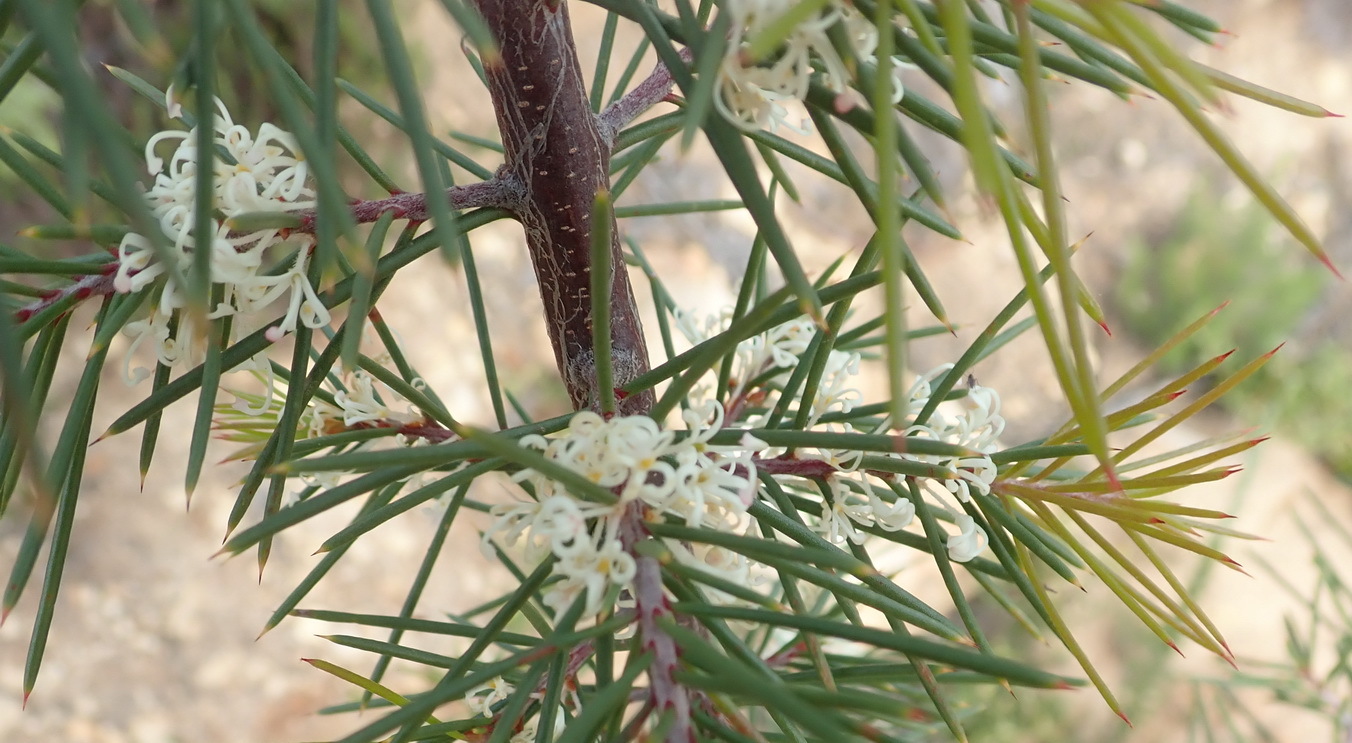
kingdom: Plantae
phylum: Tracheophyta
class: Magnoliopsida
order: Proteales
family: Proteaceae
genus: Hakea
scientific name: Hakea sericea
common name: Needle bush
